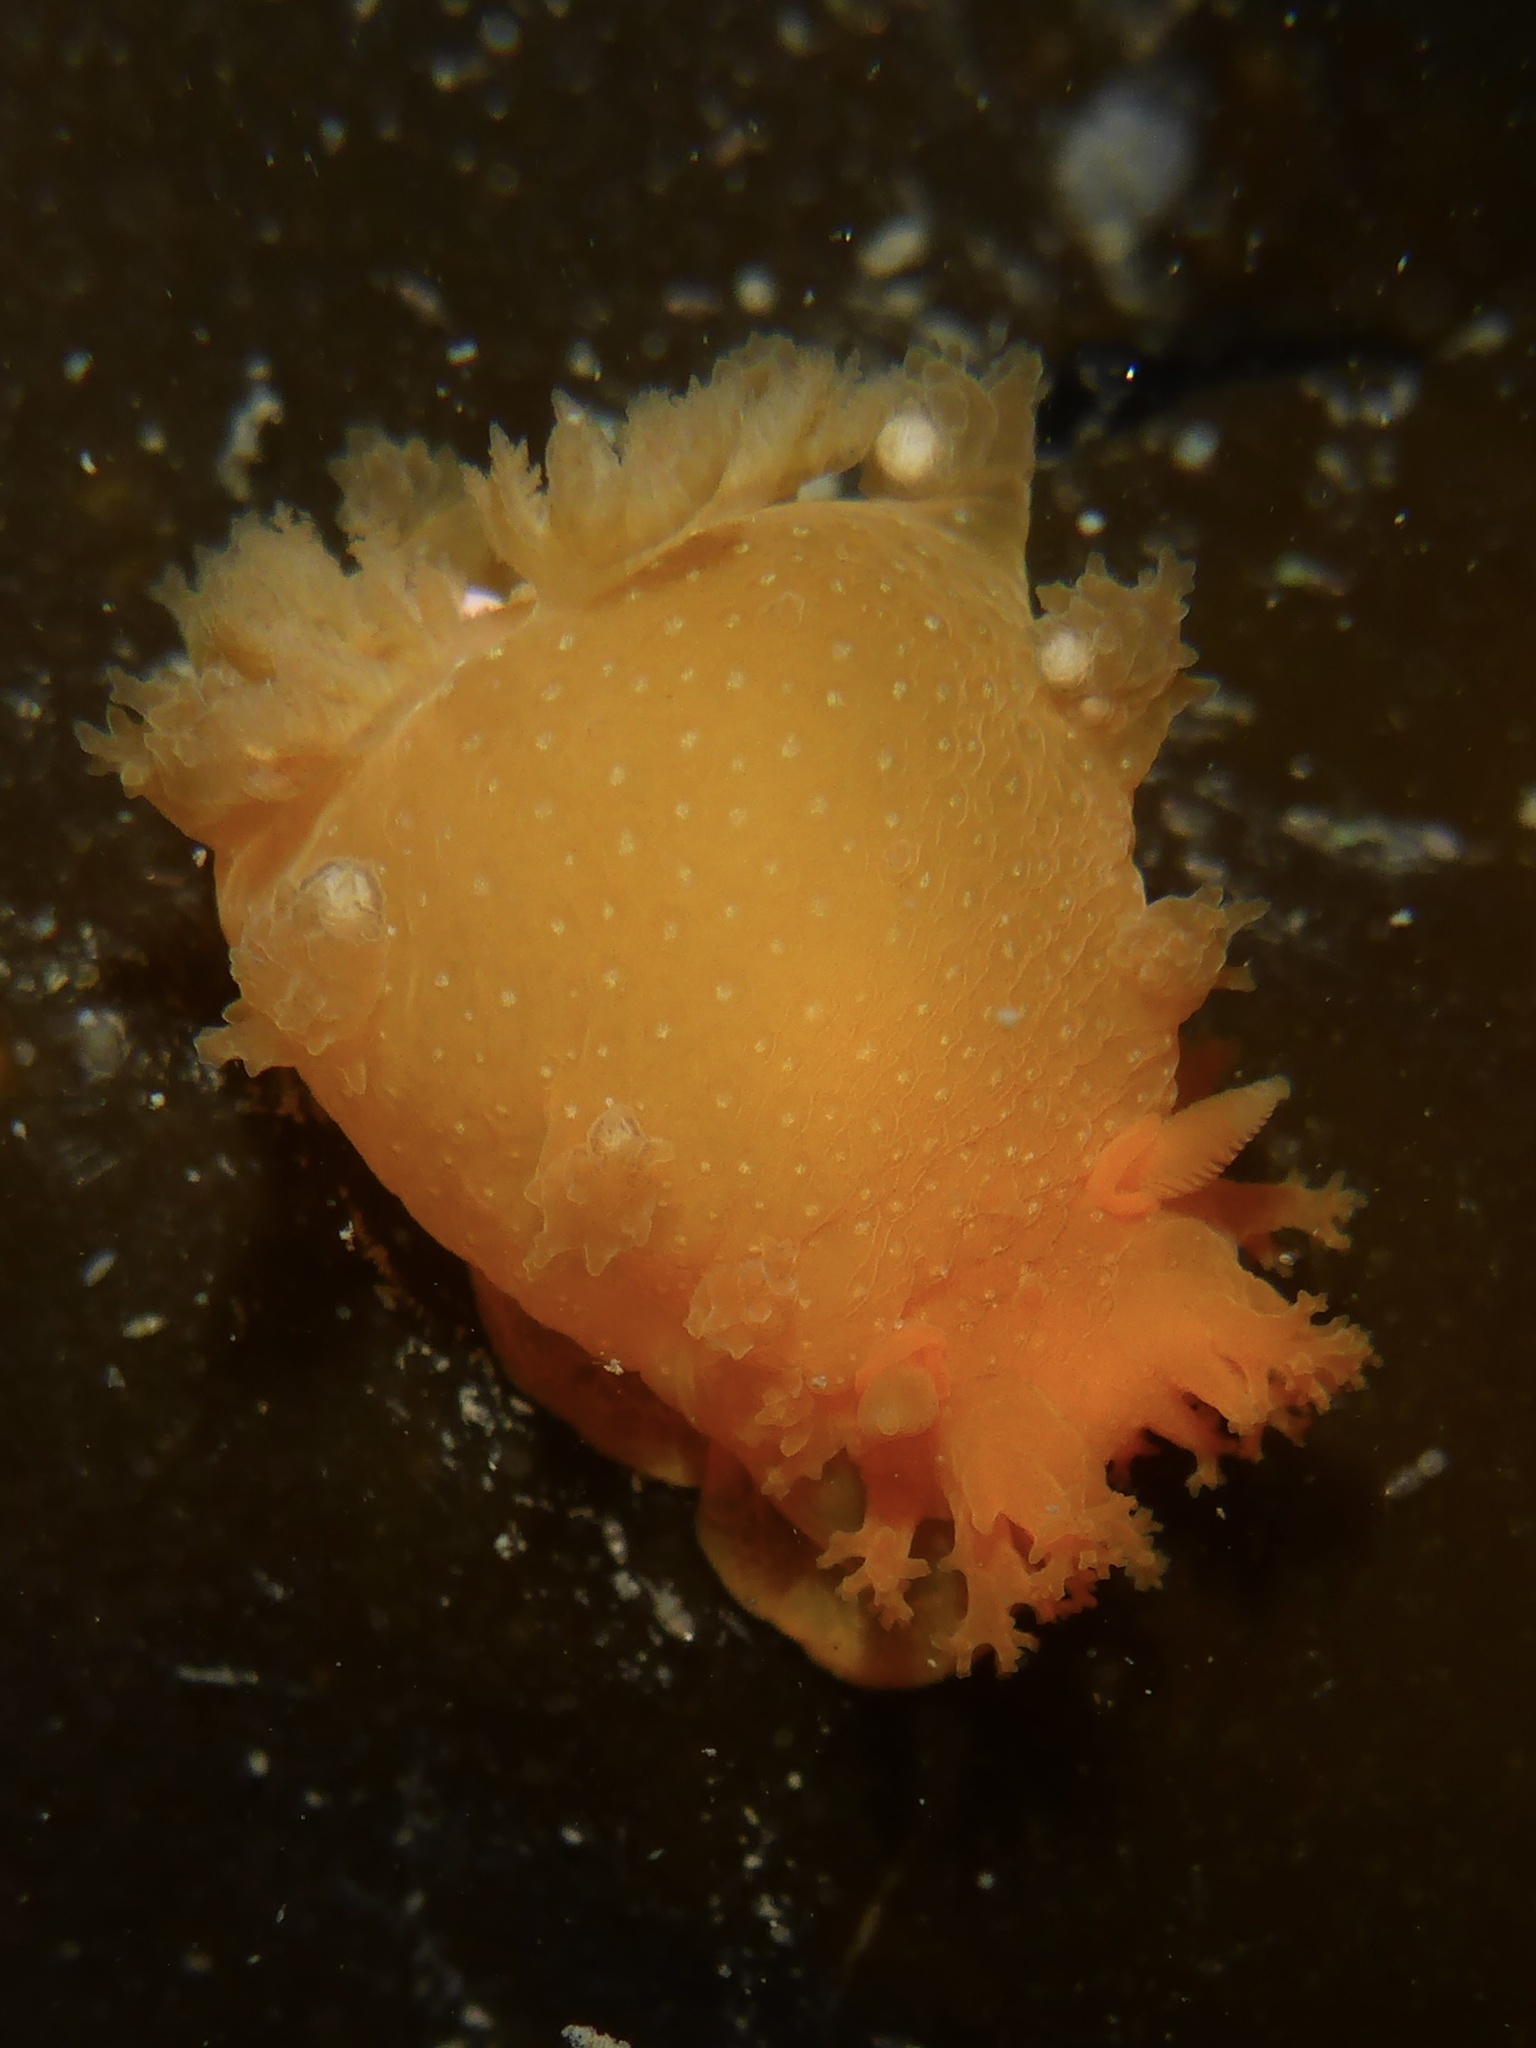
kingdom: Animalia
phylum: Mollusca
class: Gastropoda
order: Nudibranchia
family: Polyceridae
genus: Triopha
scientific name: Triopha maculata
